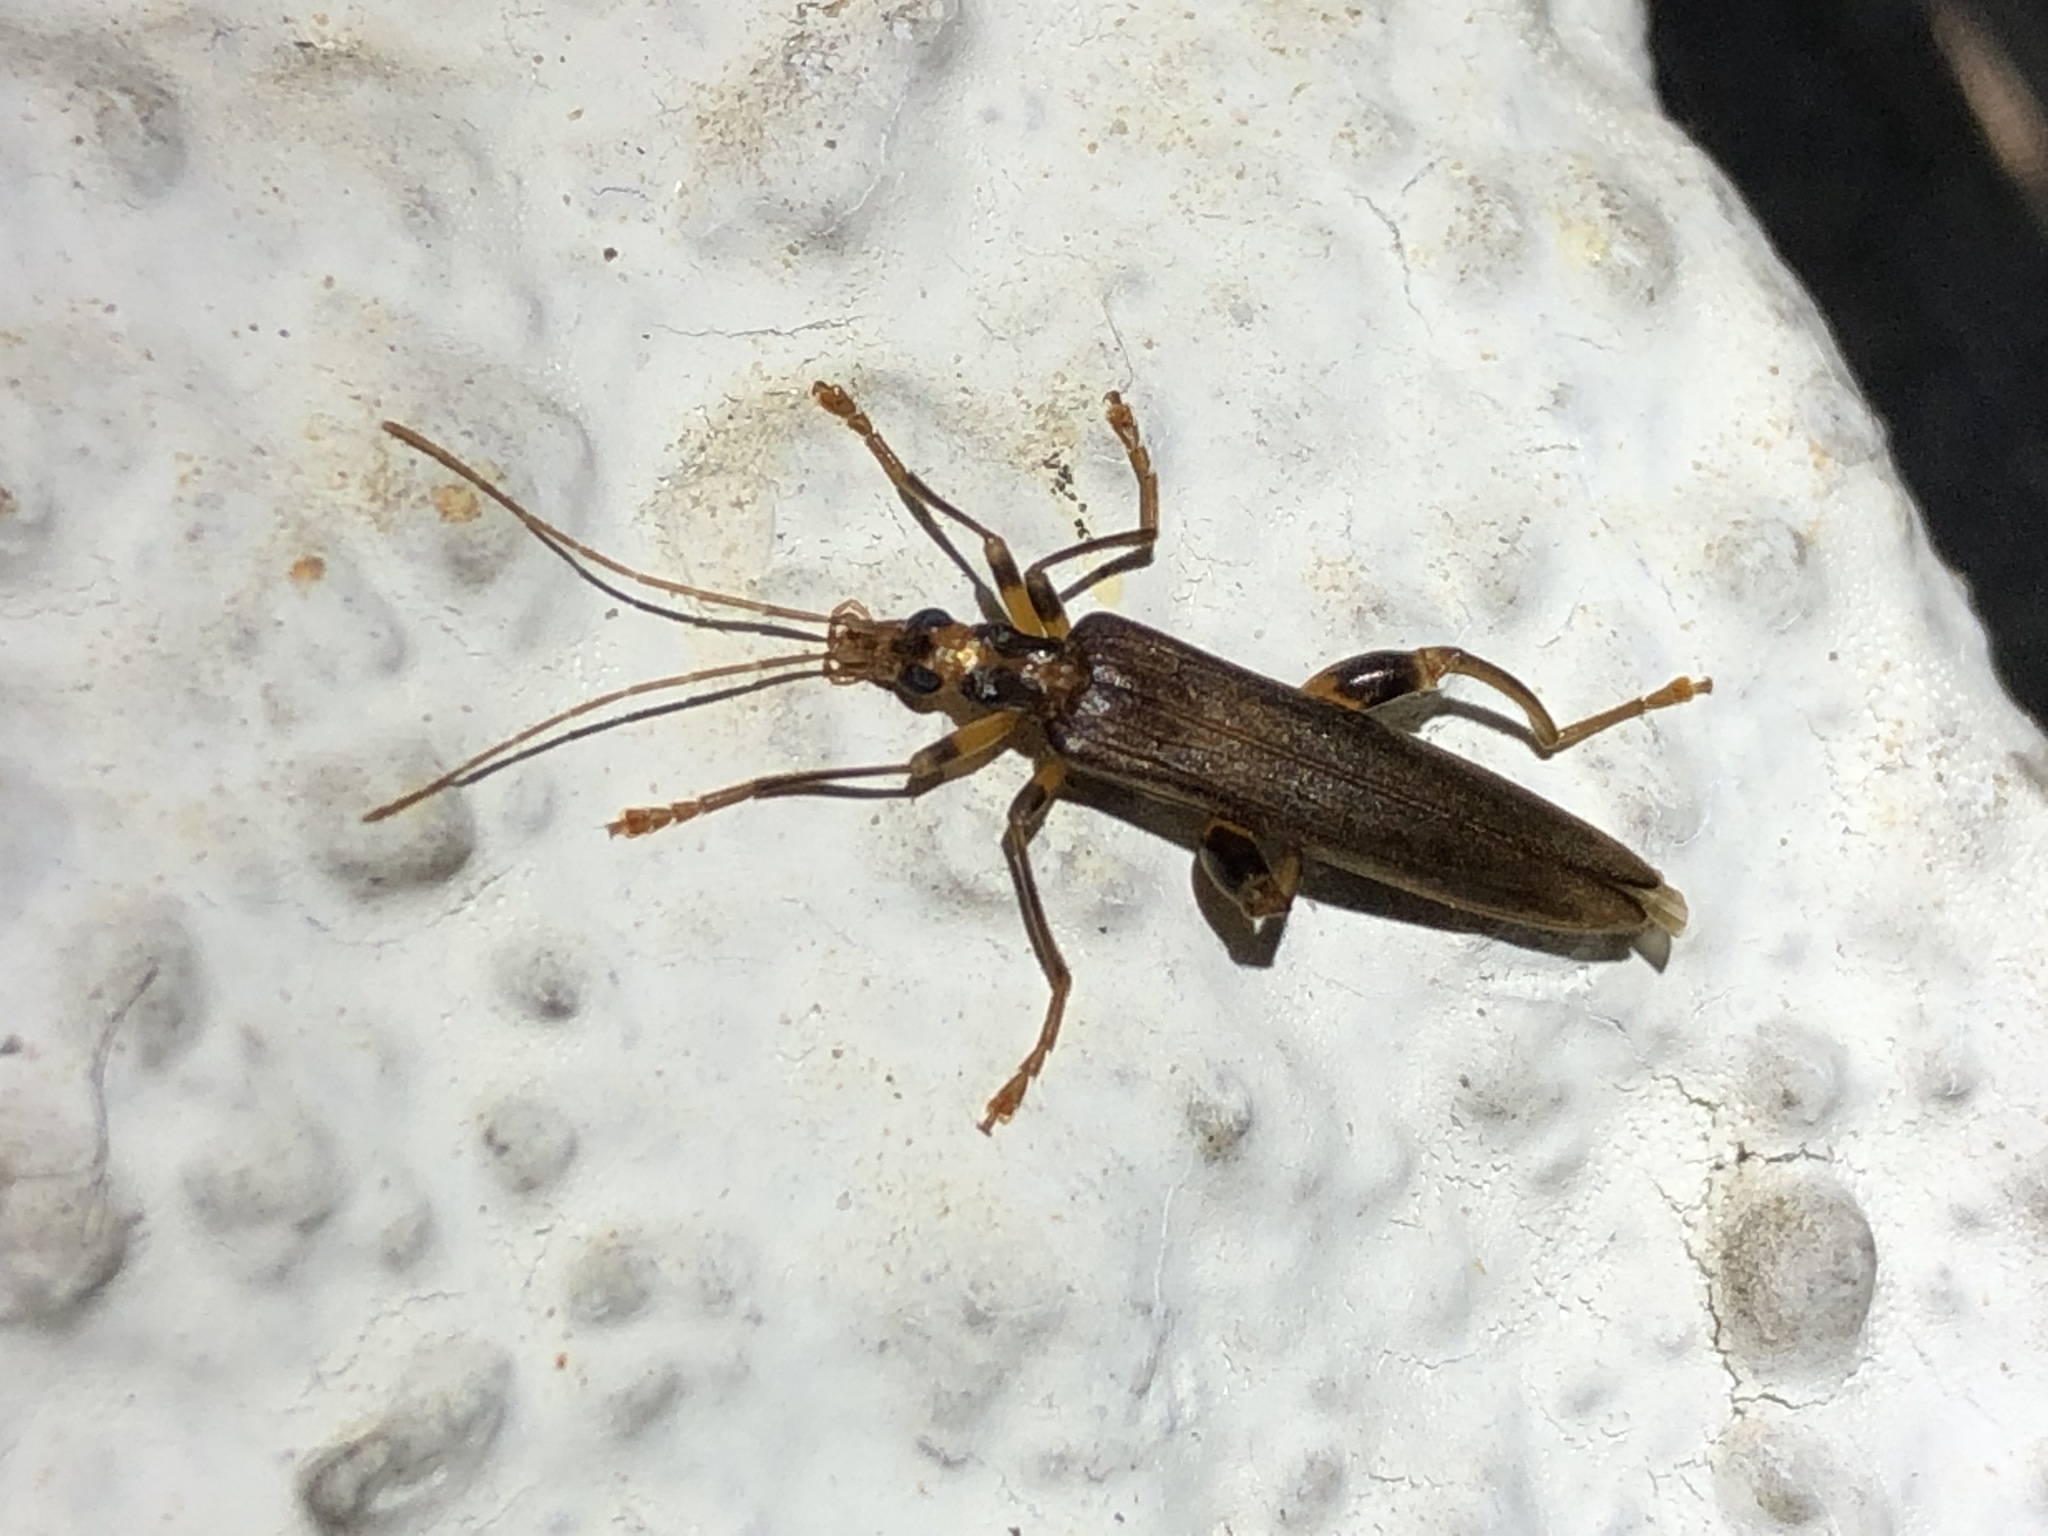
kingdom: Animalia
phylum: Arthropoda
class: Insecta
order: Coleoptera
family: Oedemeridae
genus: Oedemera
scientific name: Oedemera femoralis
